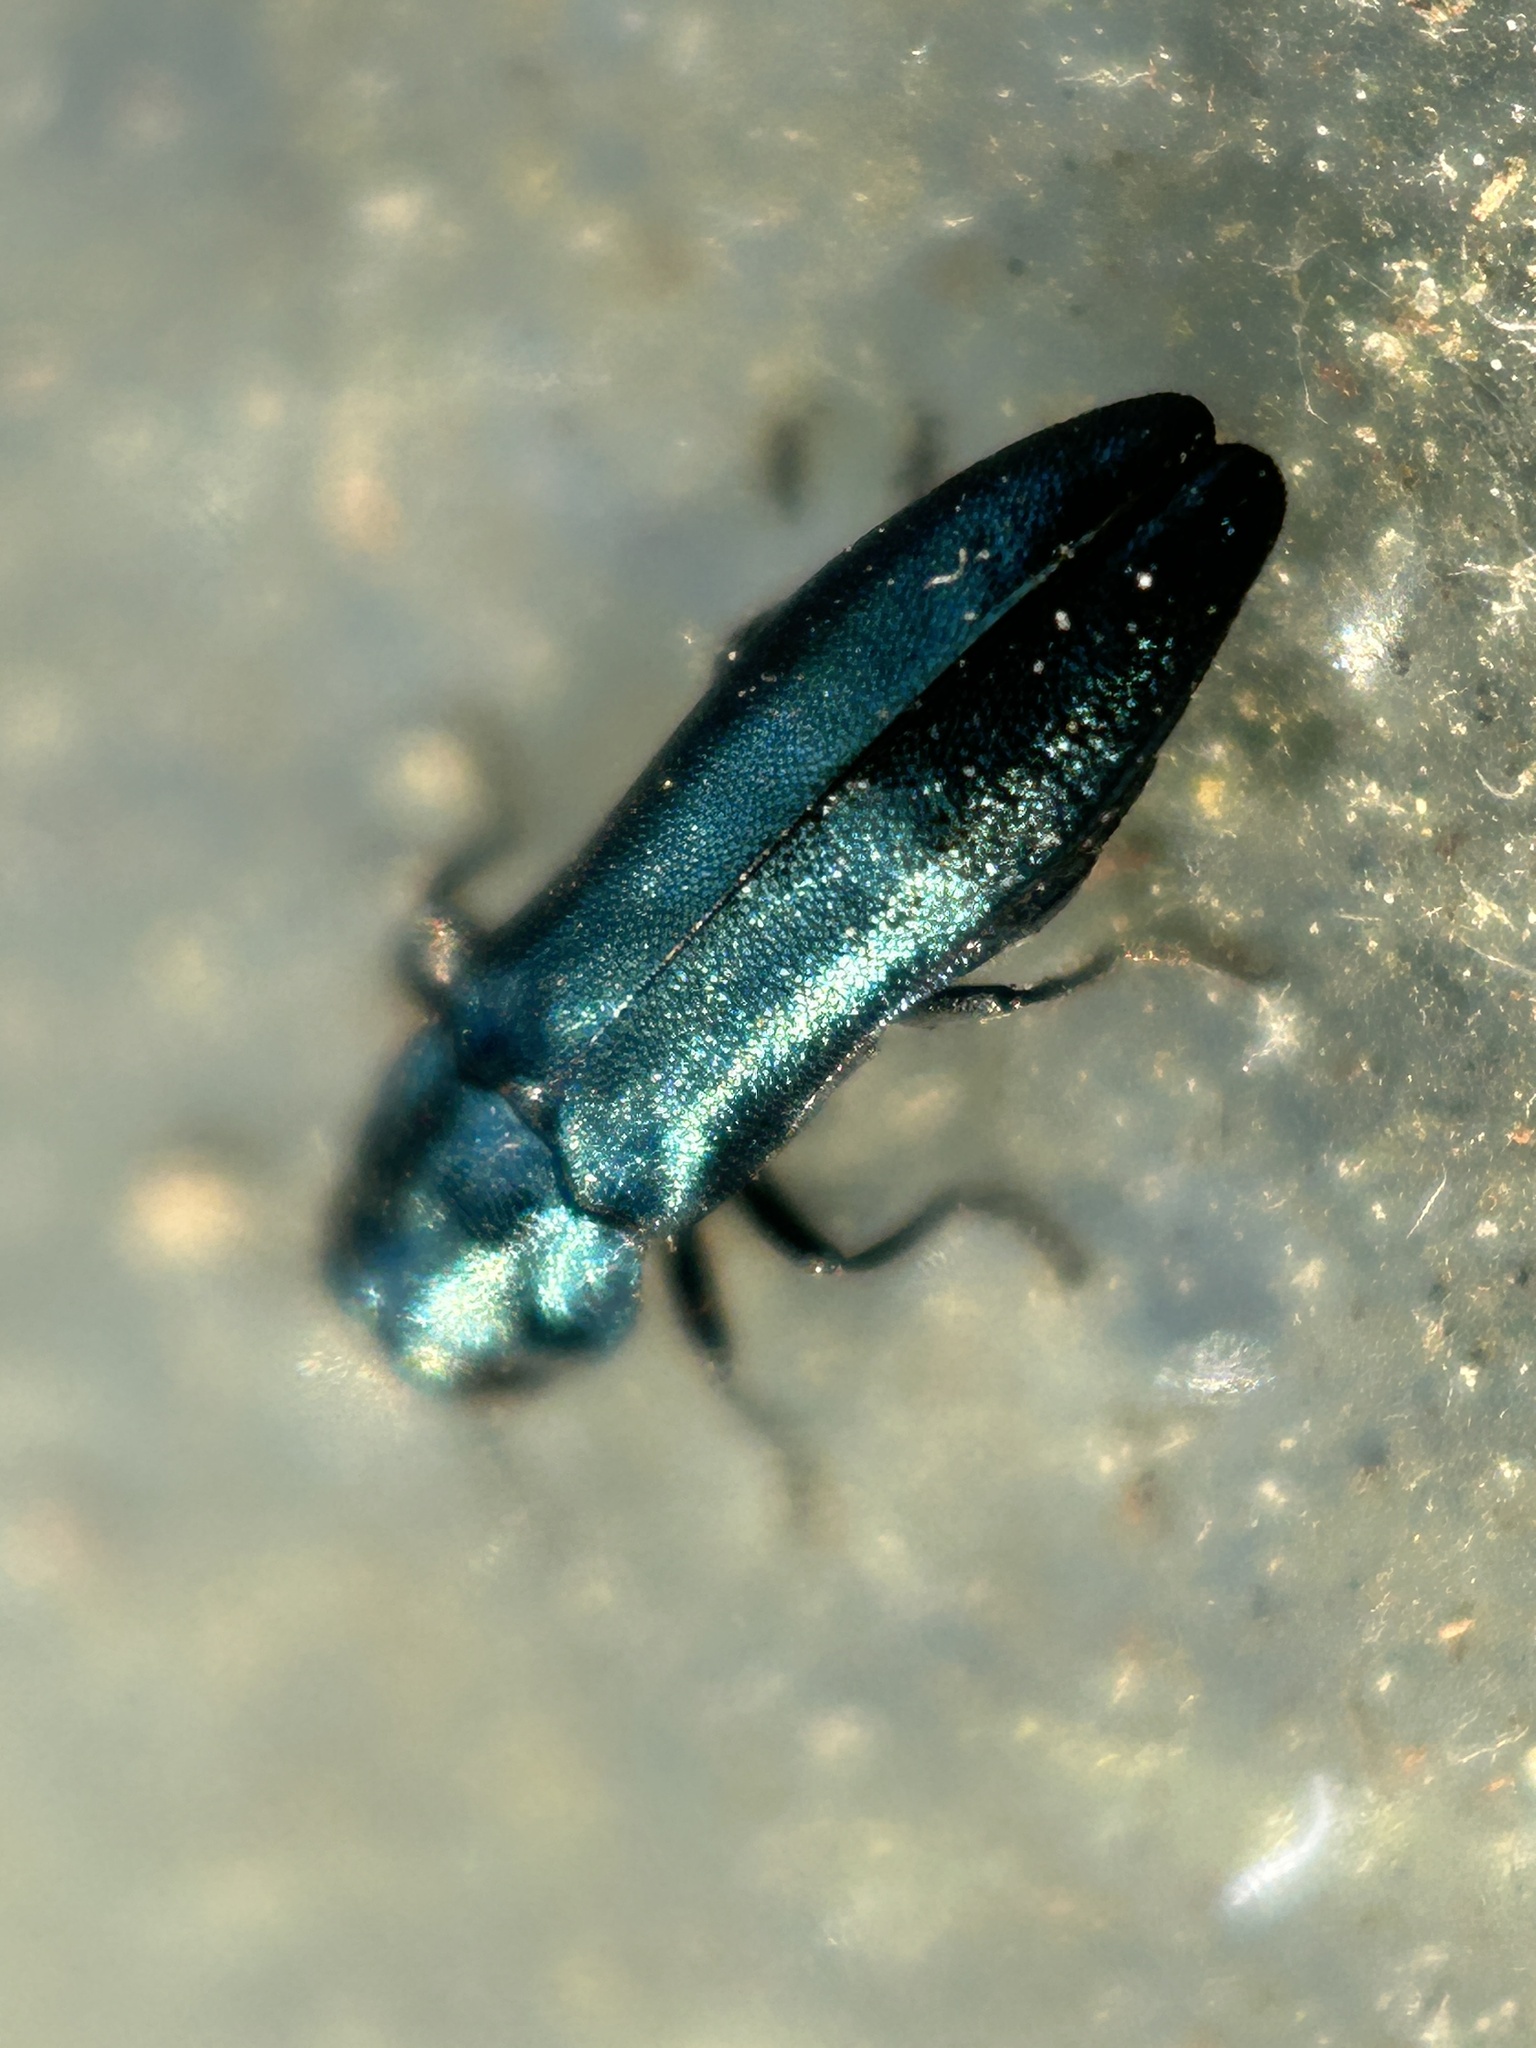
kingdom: Animalia
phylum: Arthropoda
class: Insecta
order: Coleoptera
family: Buprestidae
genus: Agrilus
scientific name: Agrilus cyanescens
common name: Bluish borer beetle
